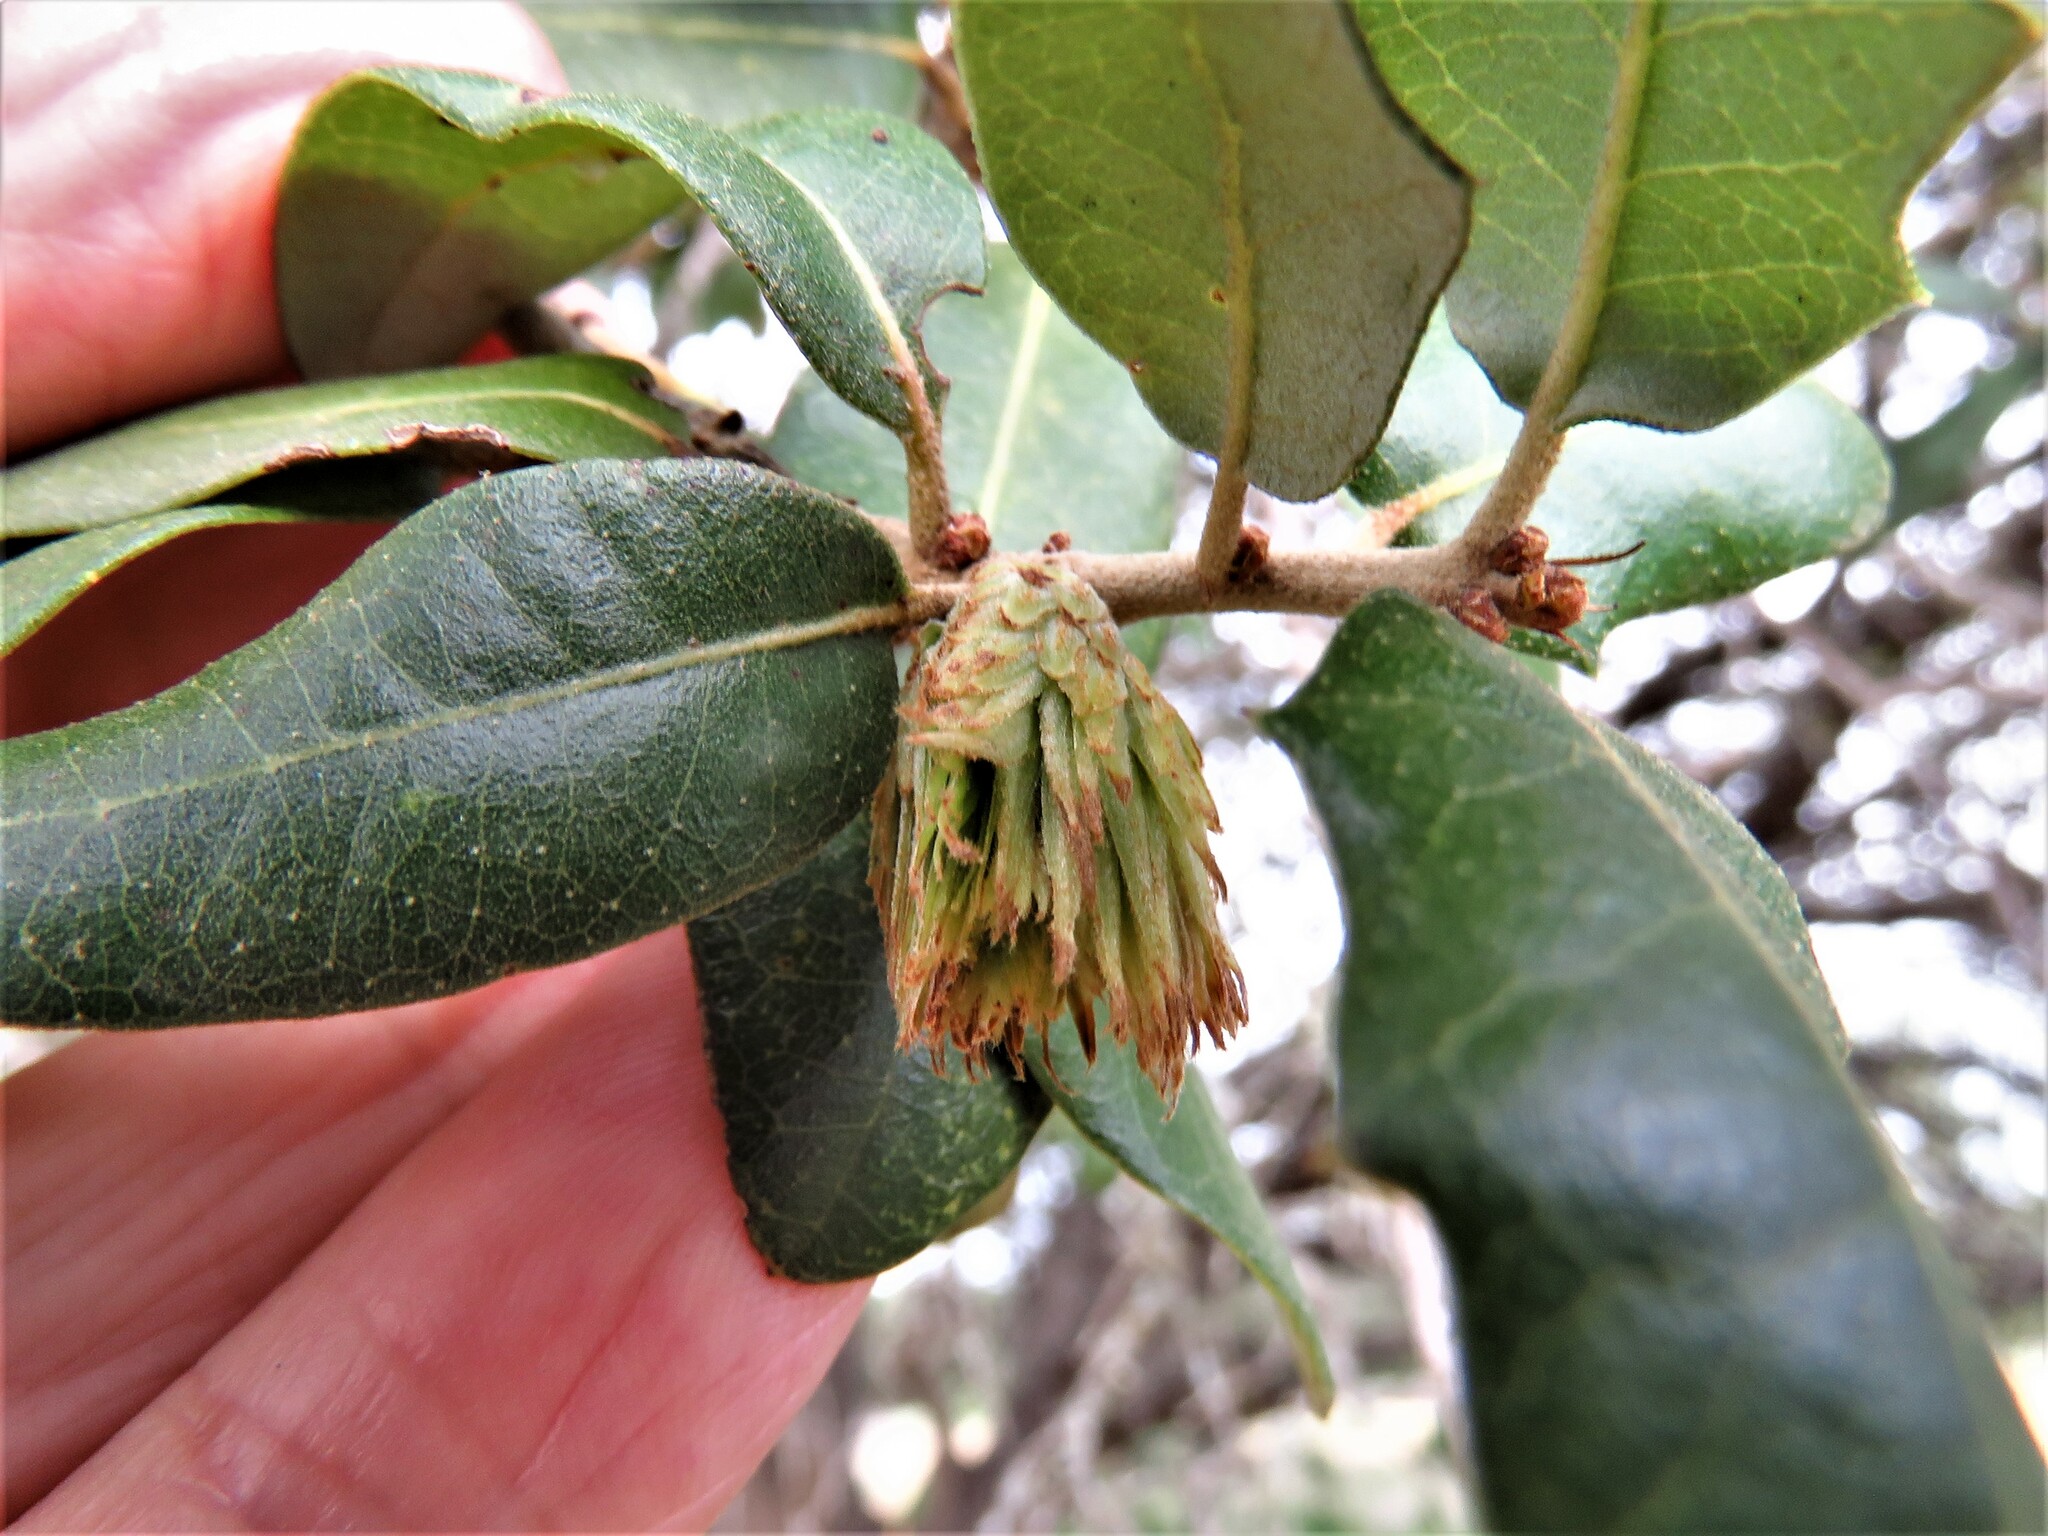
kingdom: Animalia
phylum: Arthropoda
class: Insecta
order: Hymenoptera
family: Cynipidae
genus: Andricus
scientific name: Andricus quercusfoliatus
